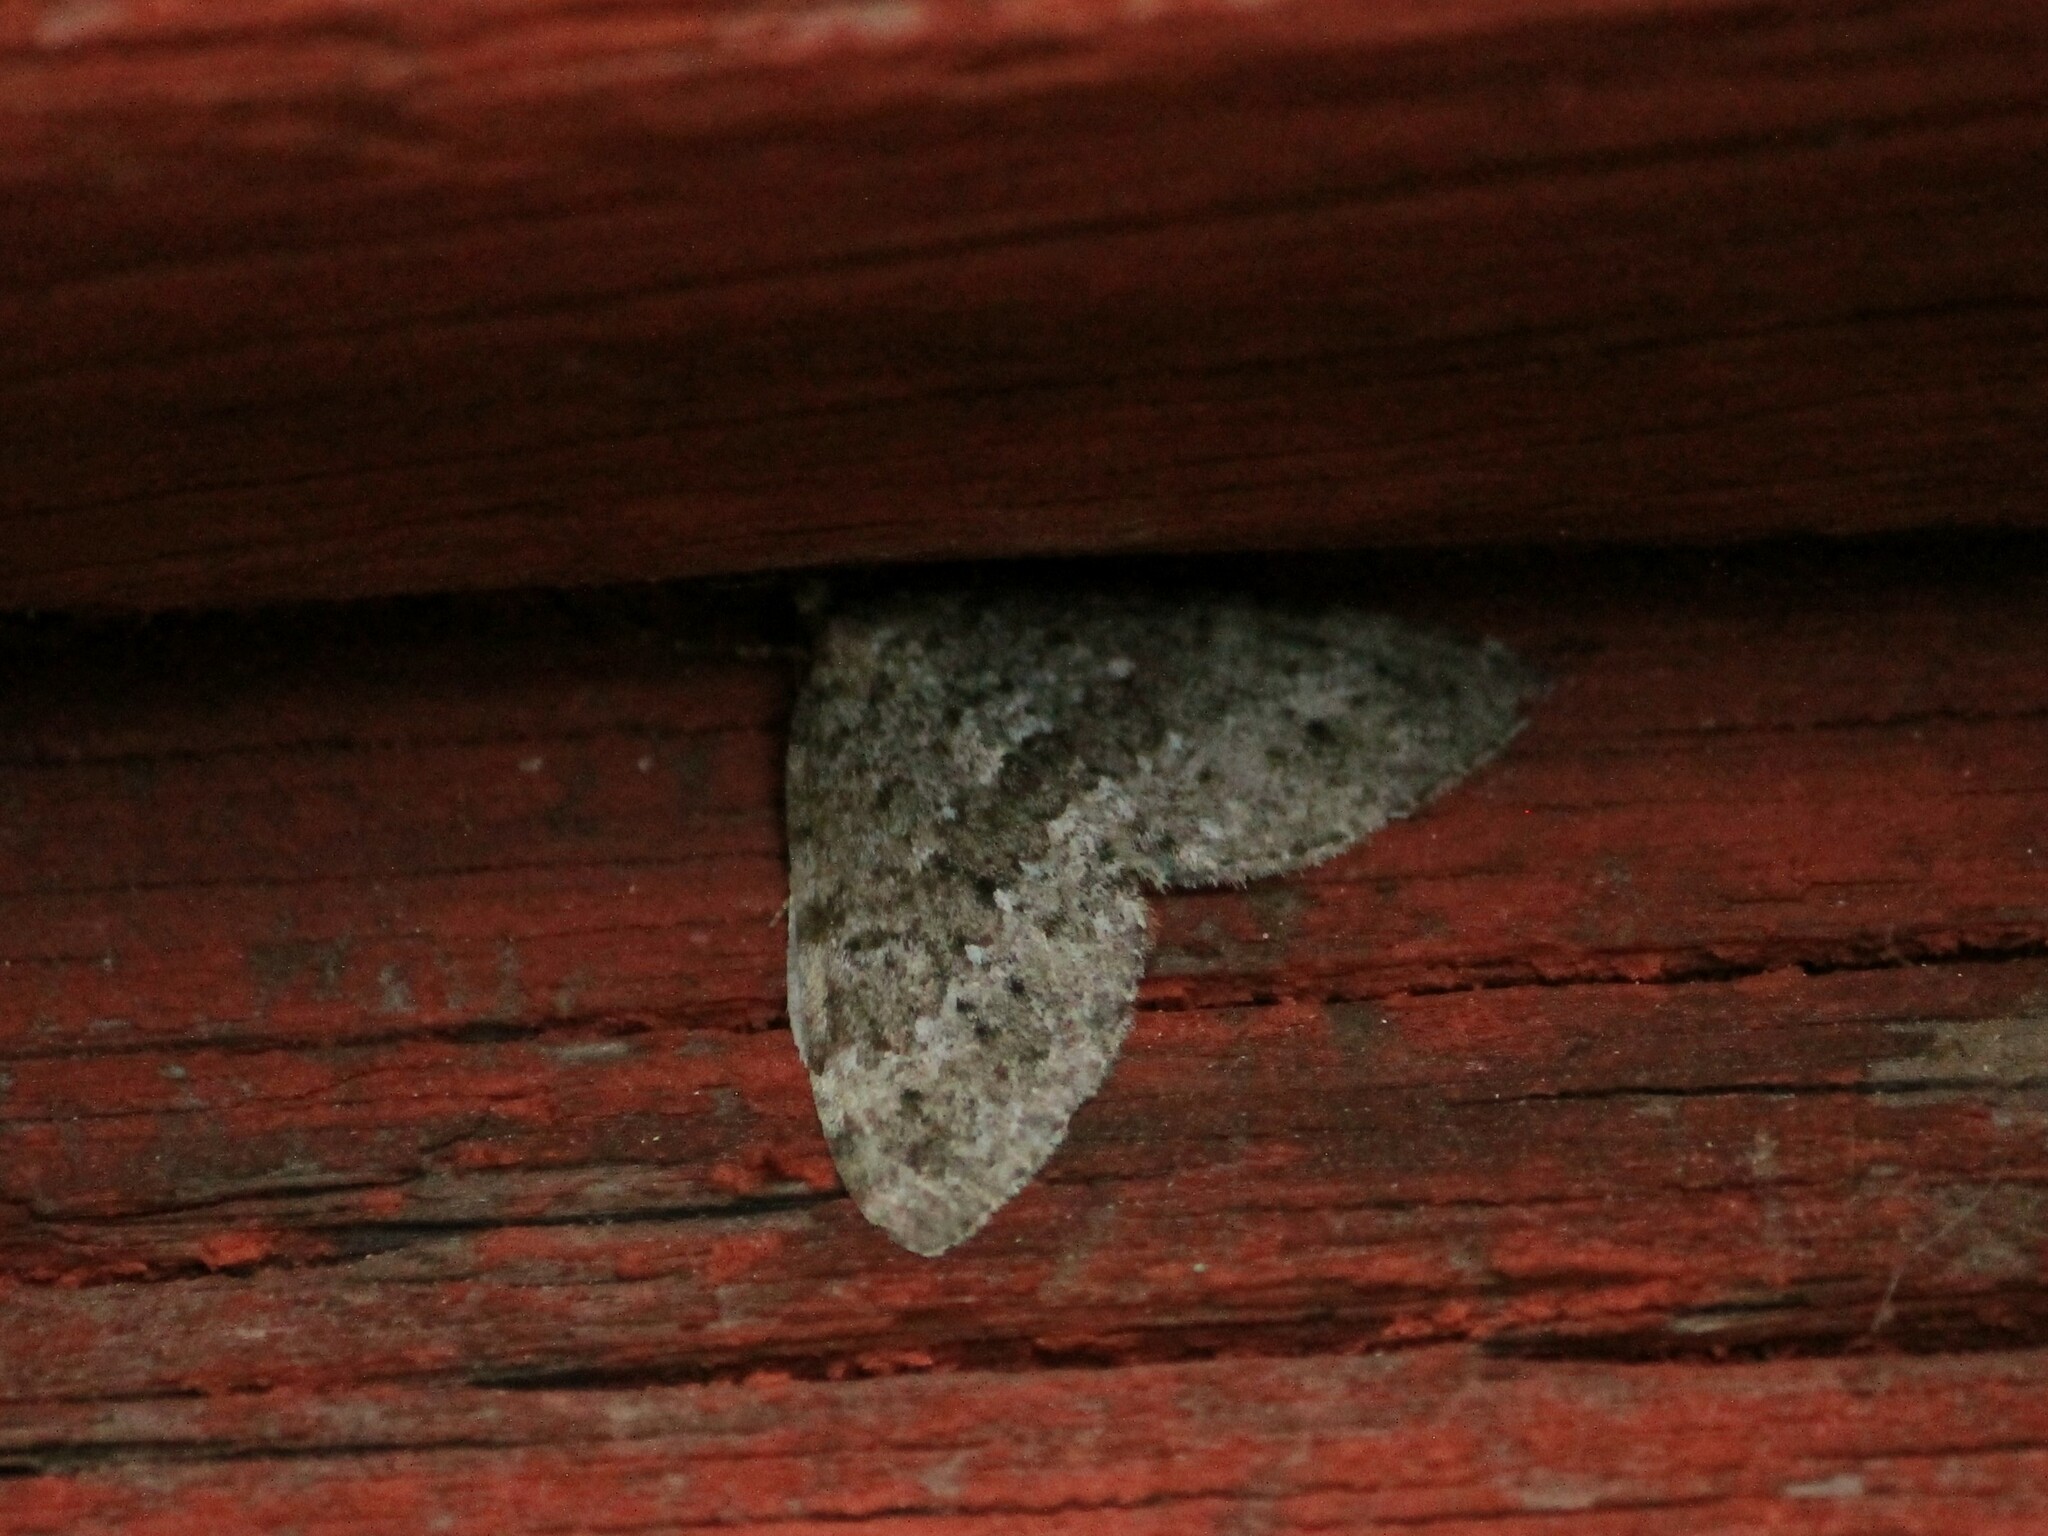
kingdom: Animalia
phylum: Arthropoda
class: Insecta
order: Lepidoptera
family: Geometridae
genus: Entephria
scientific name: Entephria caesiata
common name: Grey mountain moth
